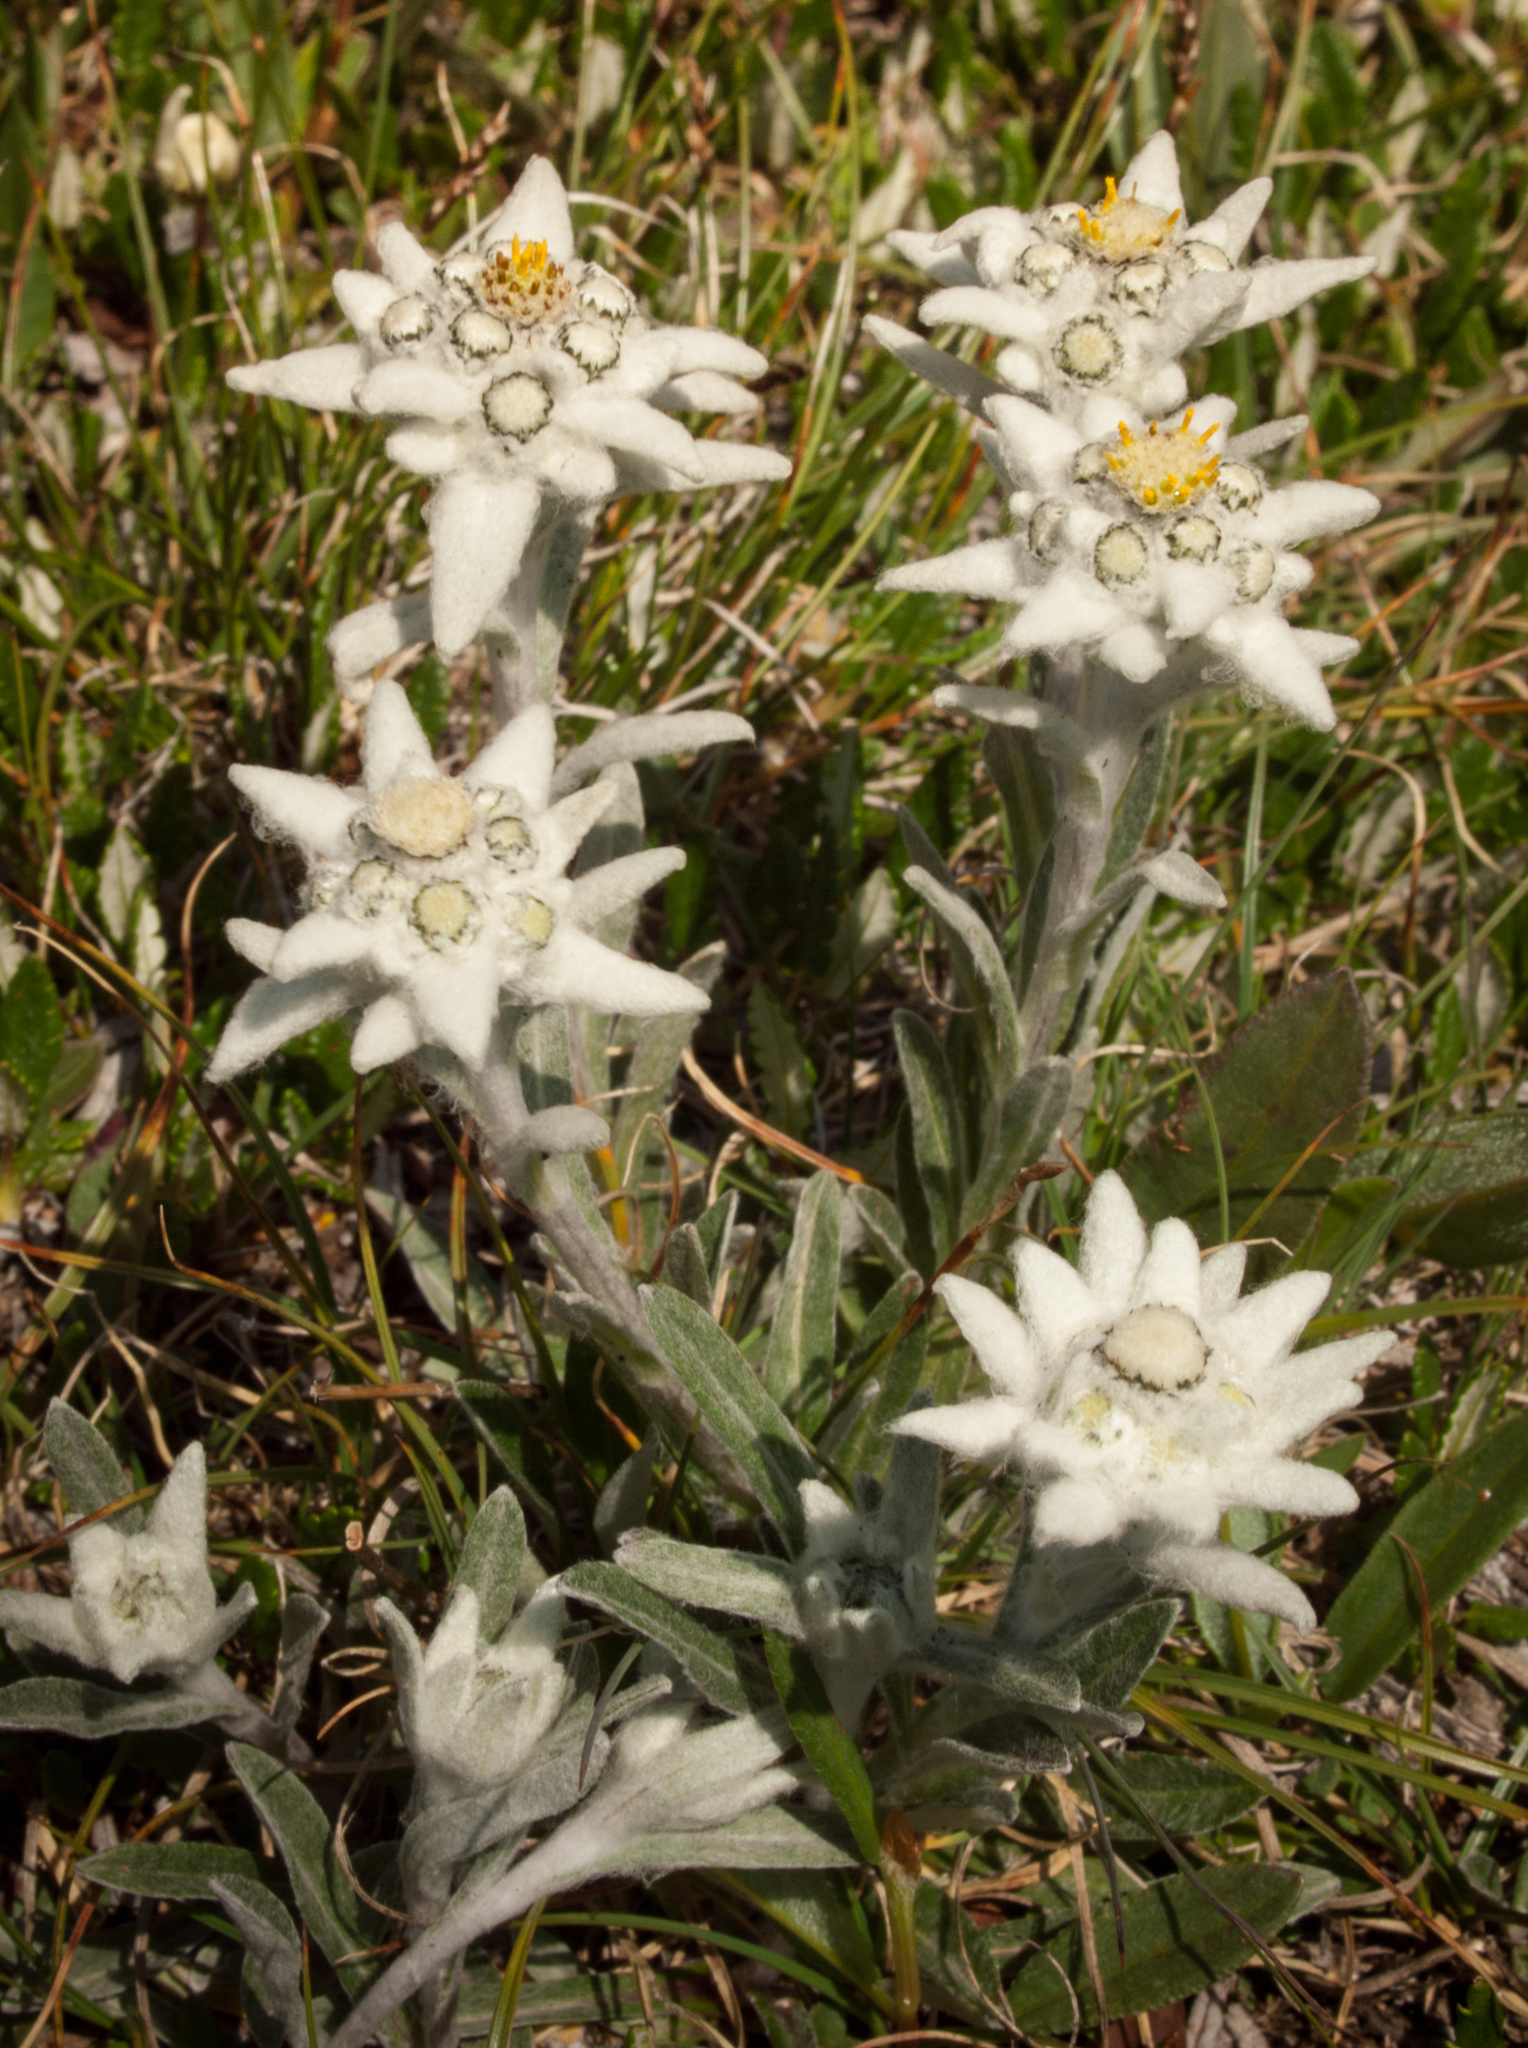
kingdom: Plantae
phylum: Tracheophyta
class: Magnoliopsida
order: Asterales
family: Asteraceae
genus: Leontopodium
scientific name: Leontopodium nivale
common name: Edelweiss
